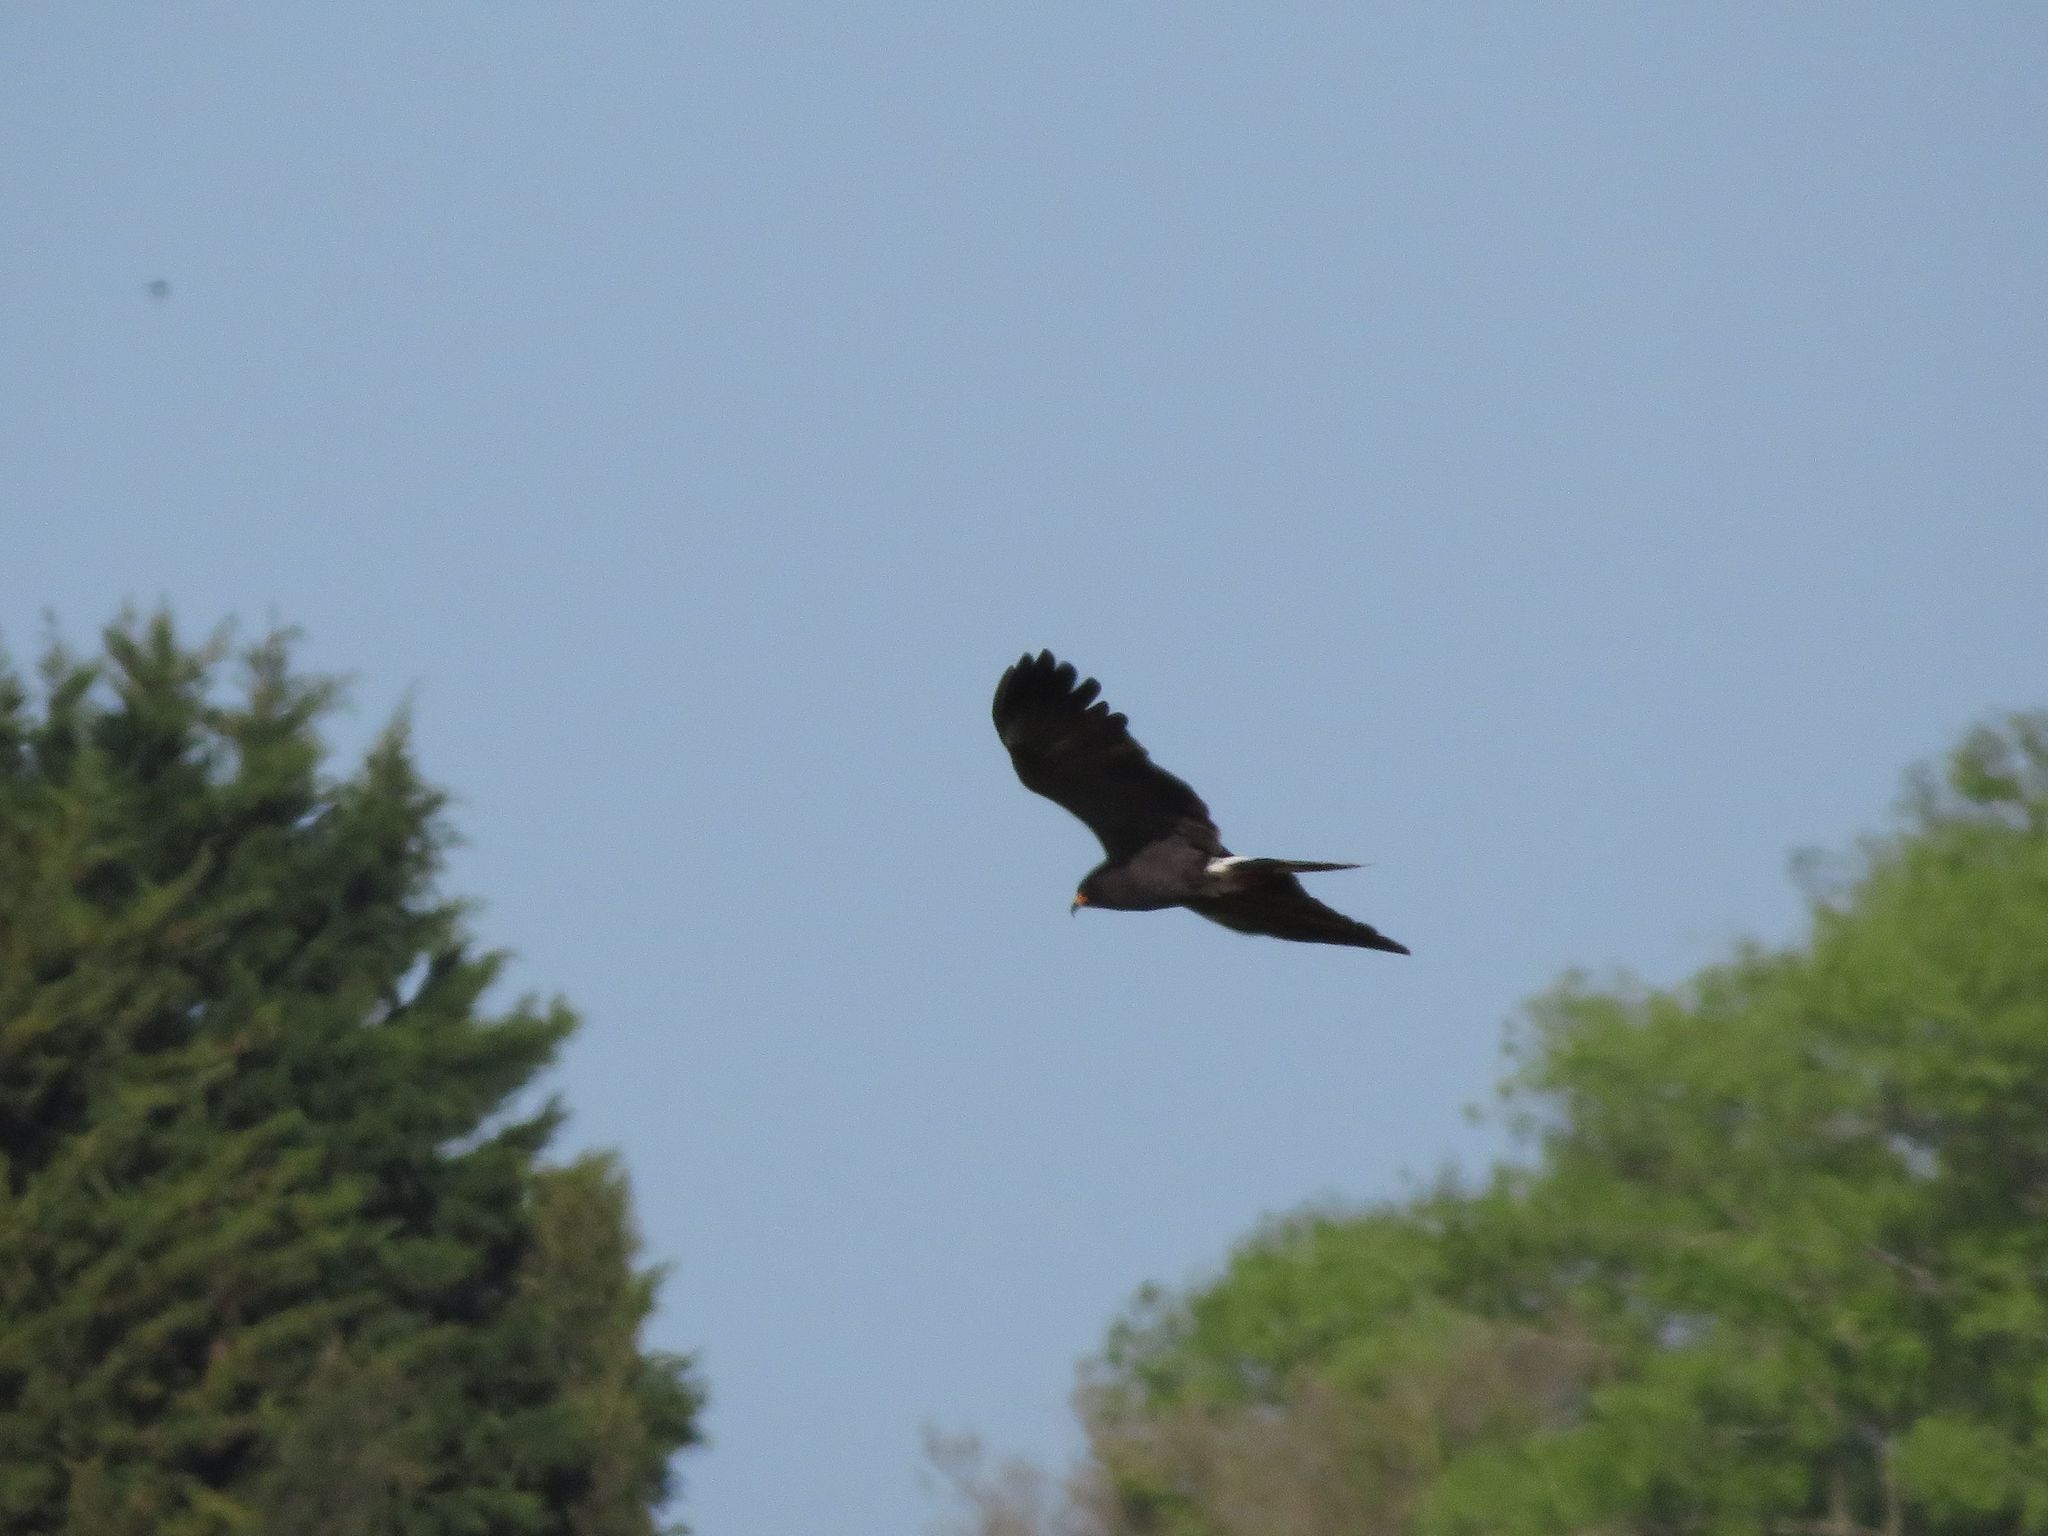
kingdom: Animalia
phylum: Chordata
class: Aves
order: Accipitriformes
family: Accipitridae
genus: Rostrhamus
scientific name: Rostrhamus sociabilis
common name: Snail kite
